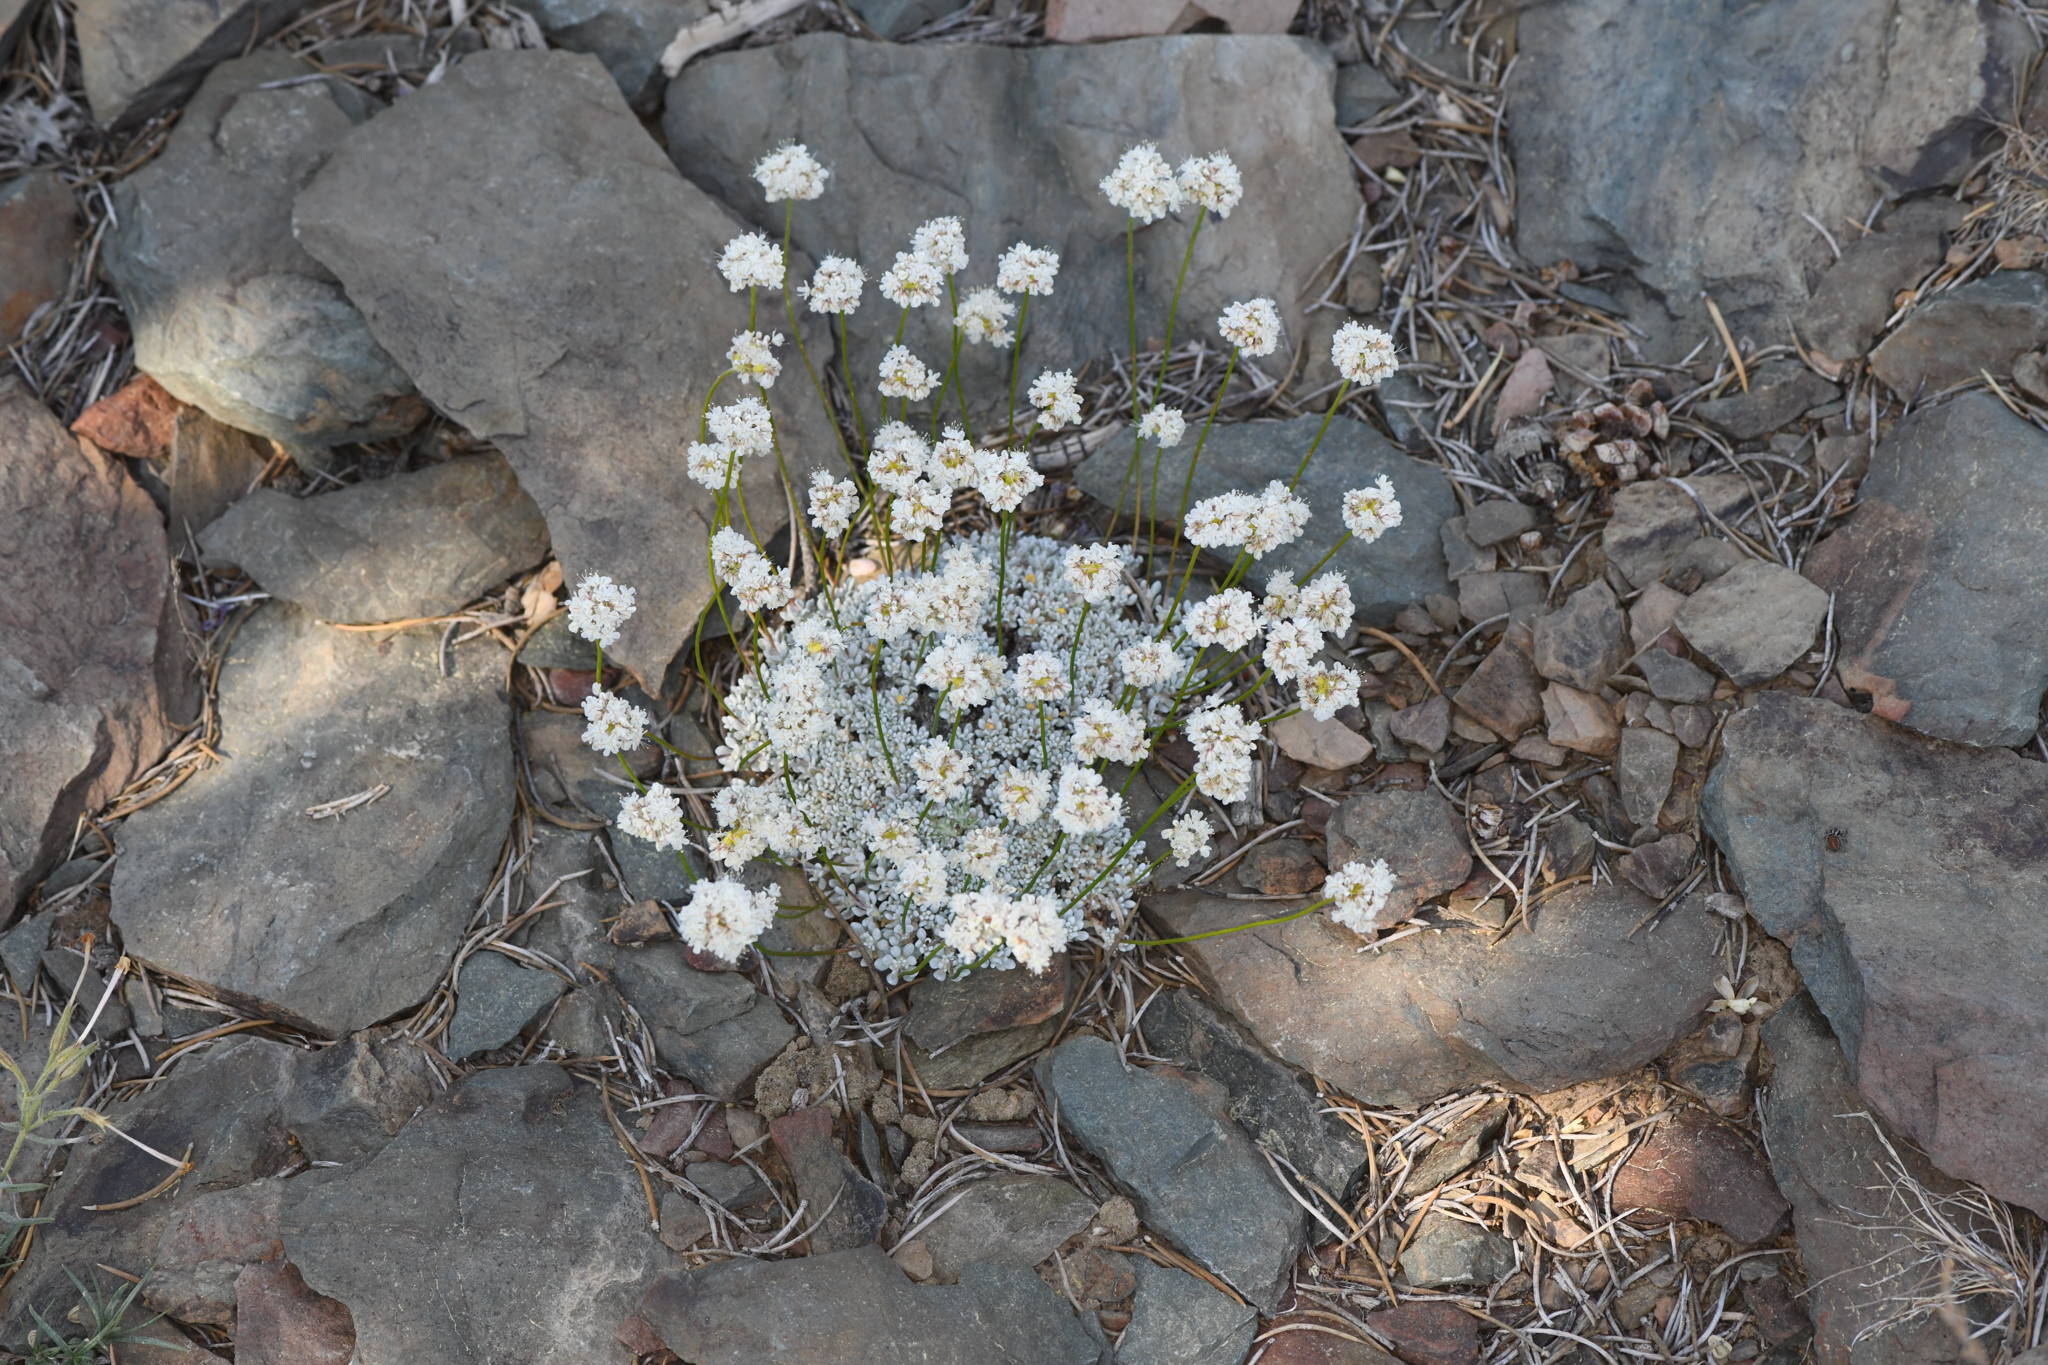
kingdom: Plantae
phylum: Tracheophyta
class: Magnoliopsida
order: Caryophyllales
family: Polygonaceae
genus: Eriogonum
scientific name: Eriogonum kennedyi
